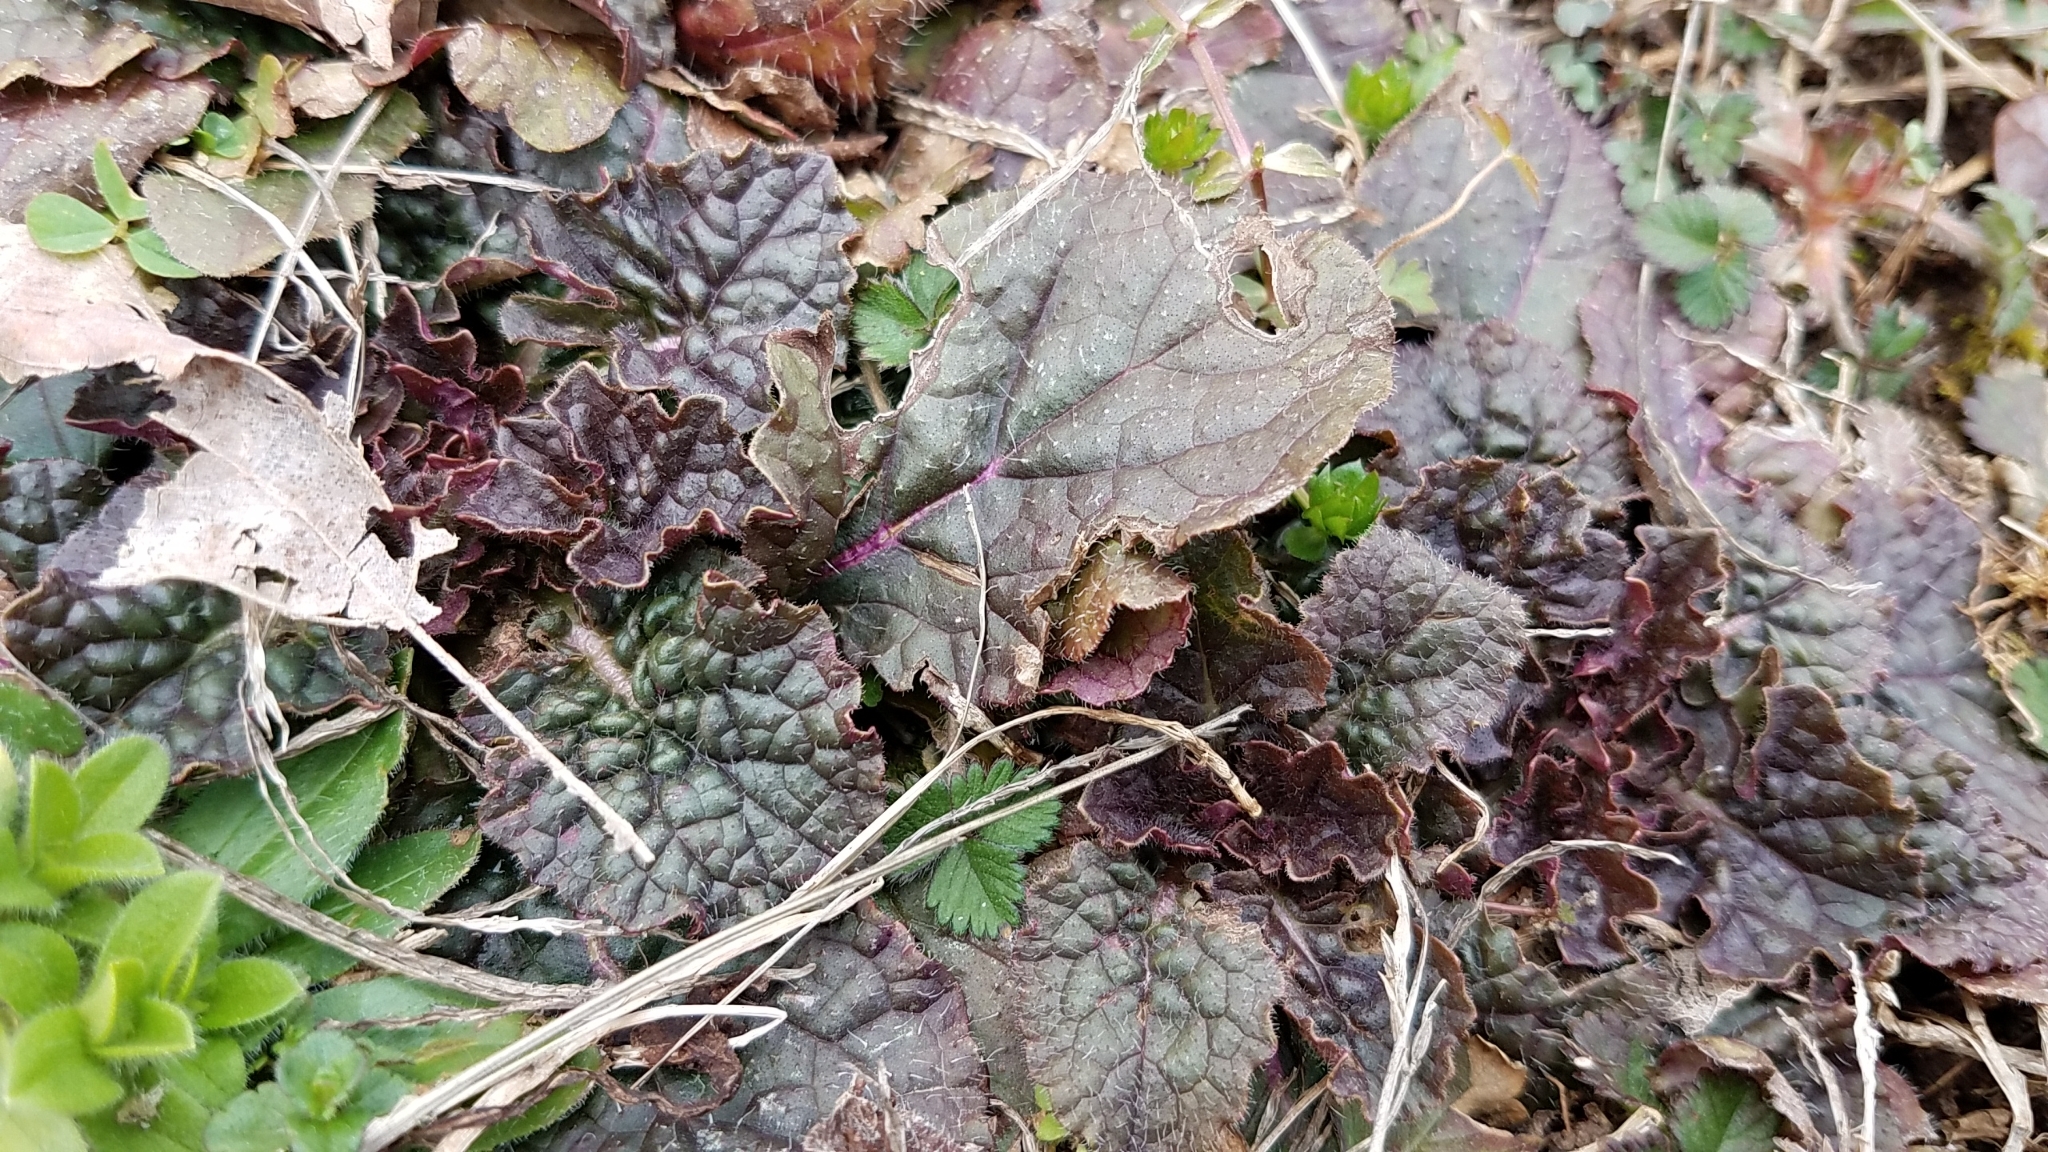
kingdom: Plantae
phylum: Tracheophyta
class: Magnoliopsida
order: Lamiales
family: Lamiaceae
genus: Salvia
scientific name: Salvia lyrata
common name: Cancerweed
